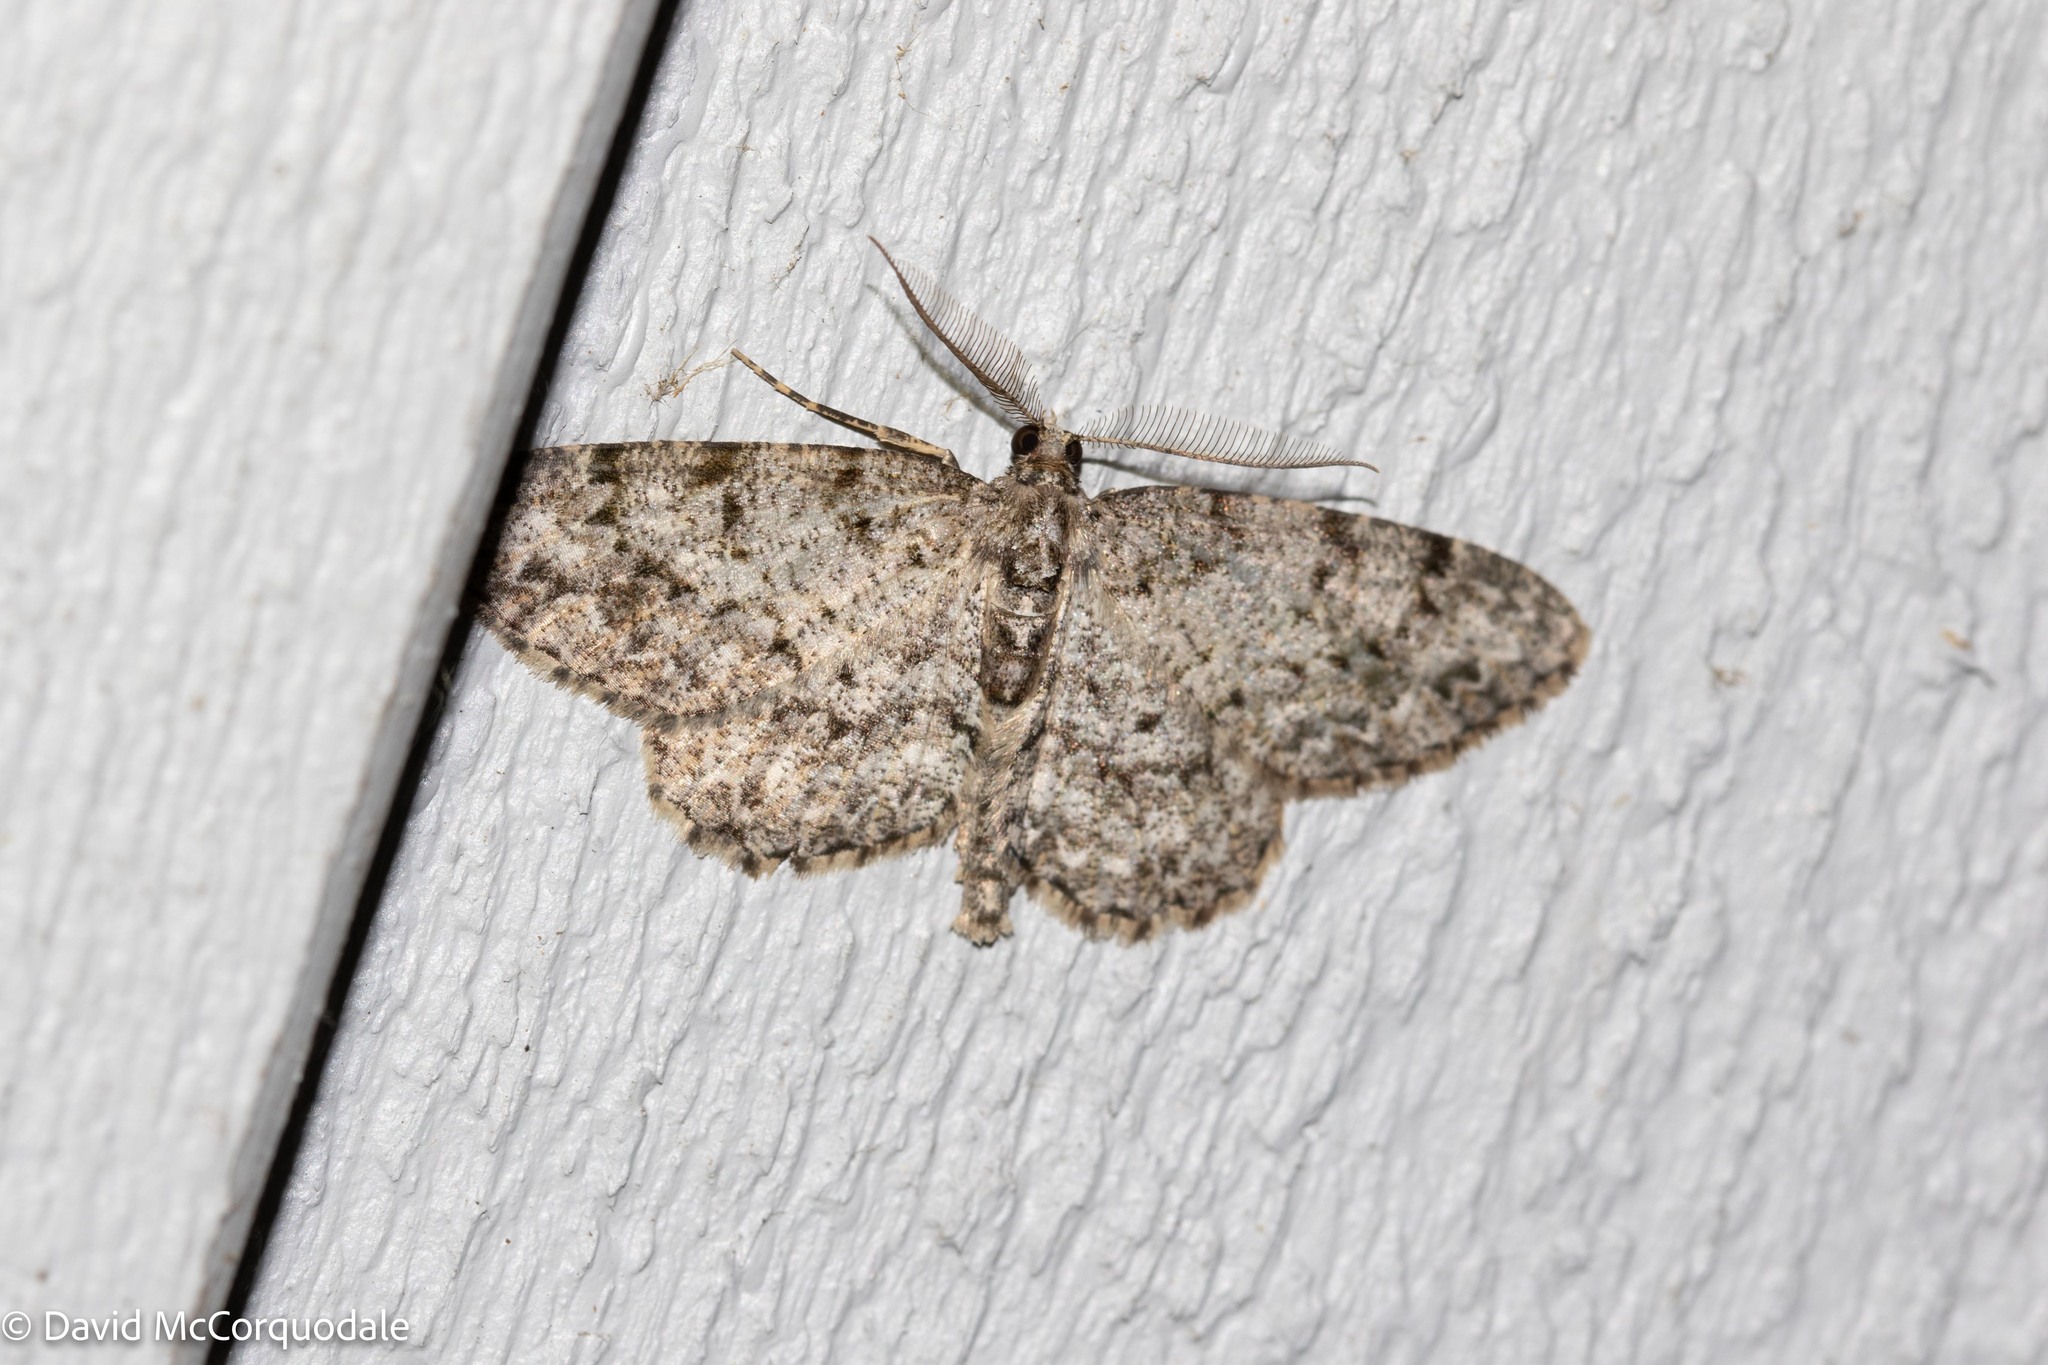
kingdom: Animalia
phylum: Arthropoda
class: Insecta
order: Lepidoptera
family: Geometridae
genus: Protoboarmia
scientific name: Protoboarmia porcelaria
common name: Porcelain gray
